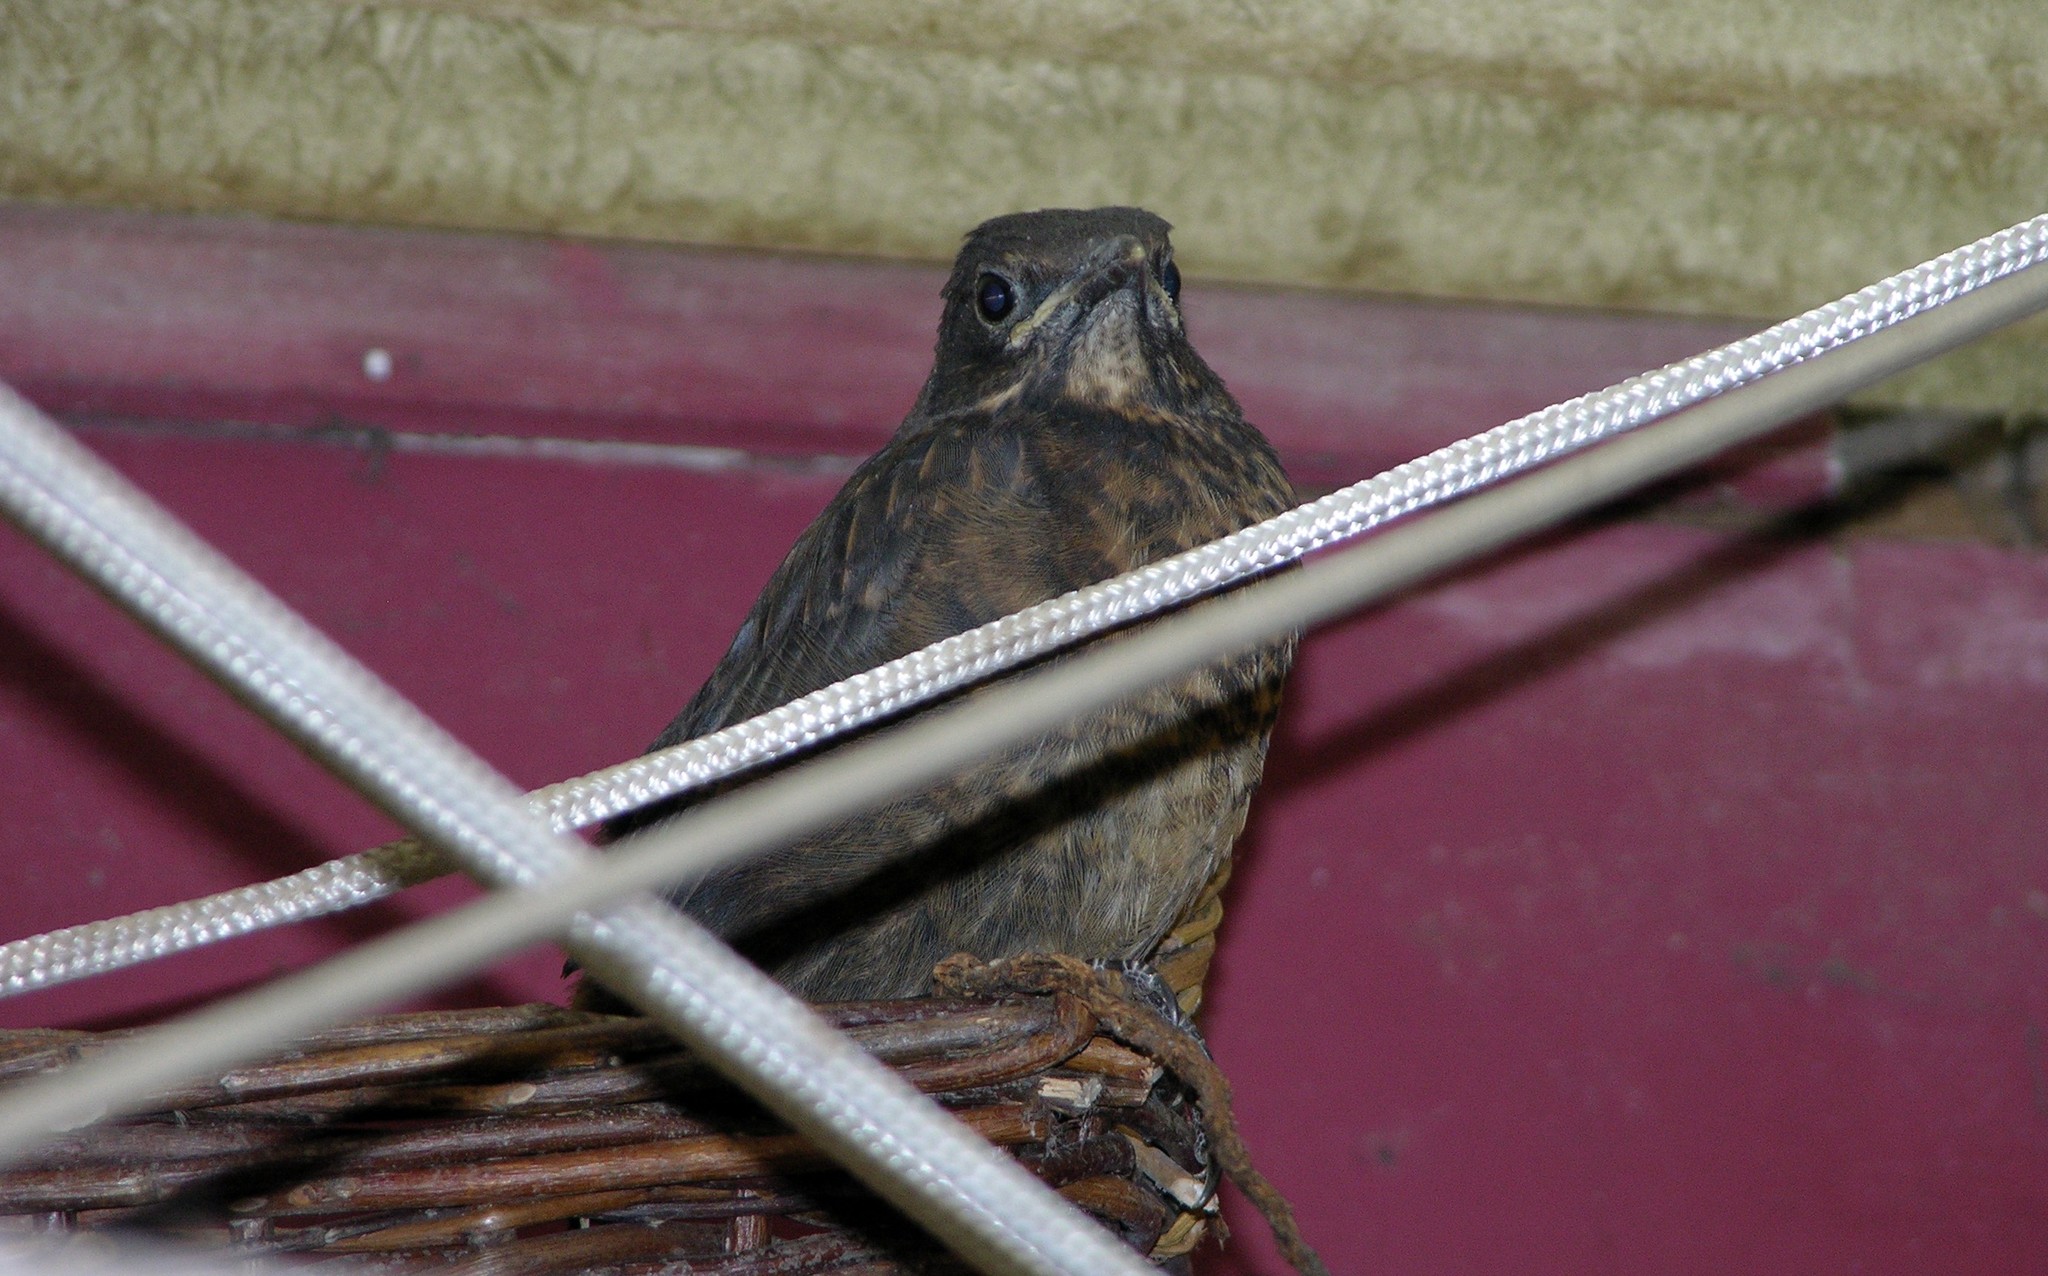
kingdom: Animalia
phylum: Chordata
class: Aves
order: Passeriformes
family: Turdidae
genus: Turdus
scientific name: Turdus merula
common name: Common blackbird
